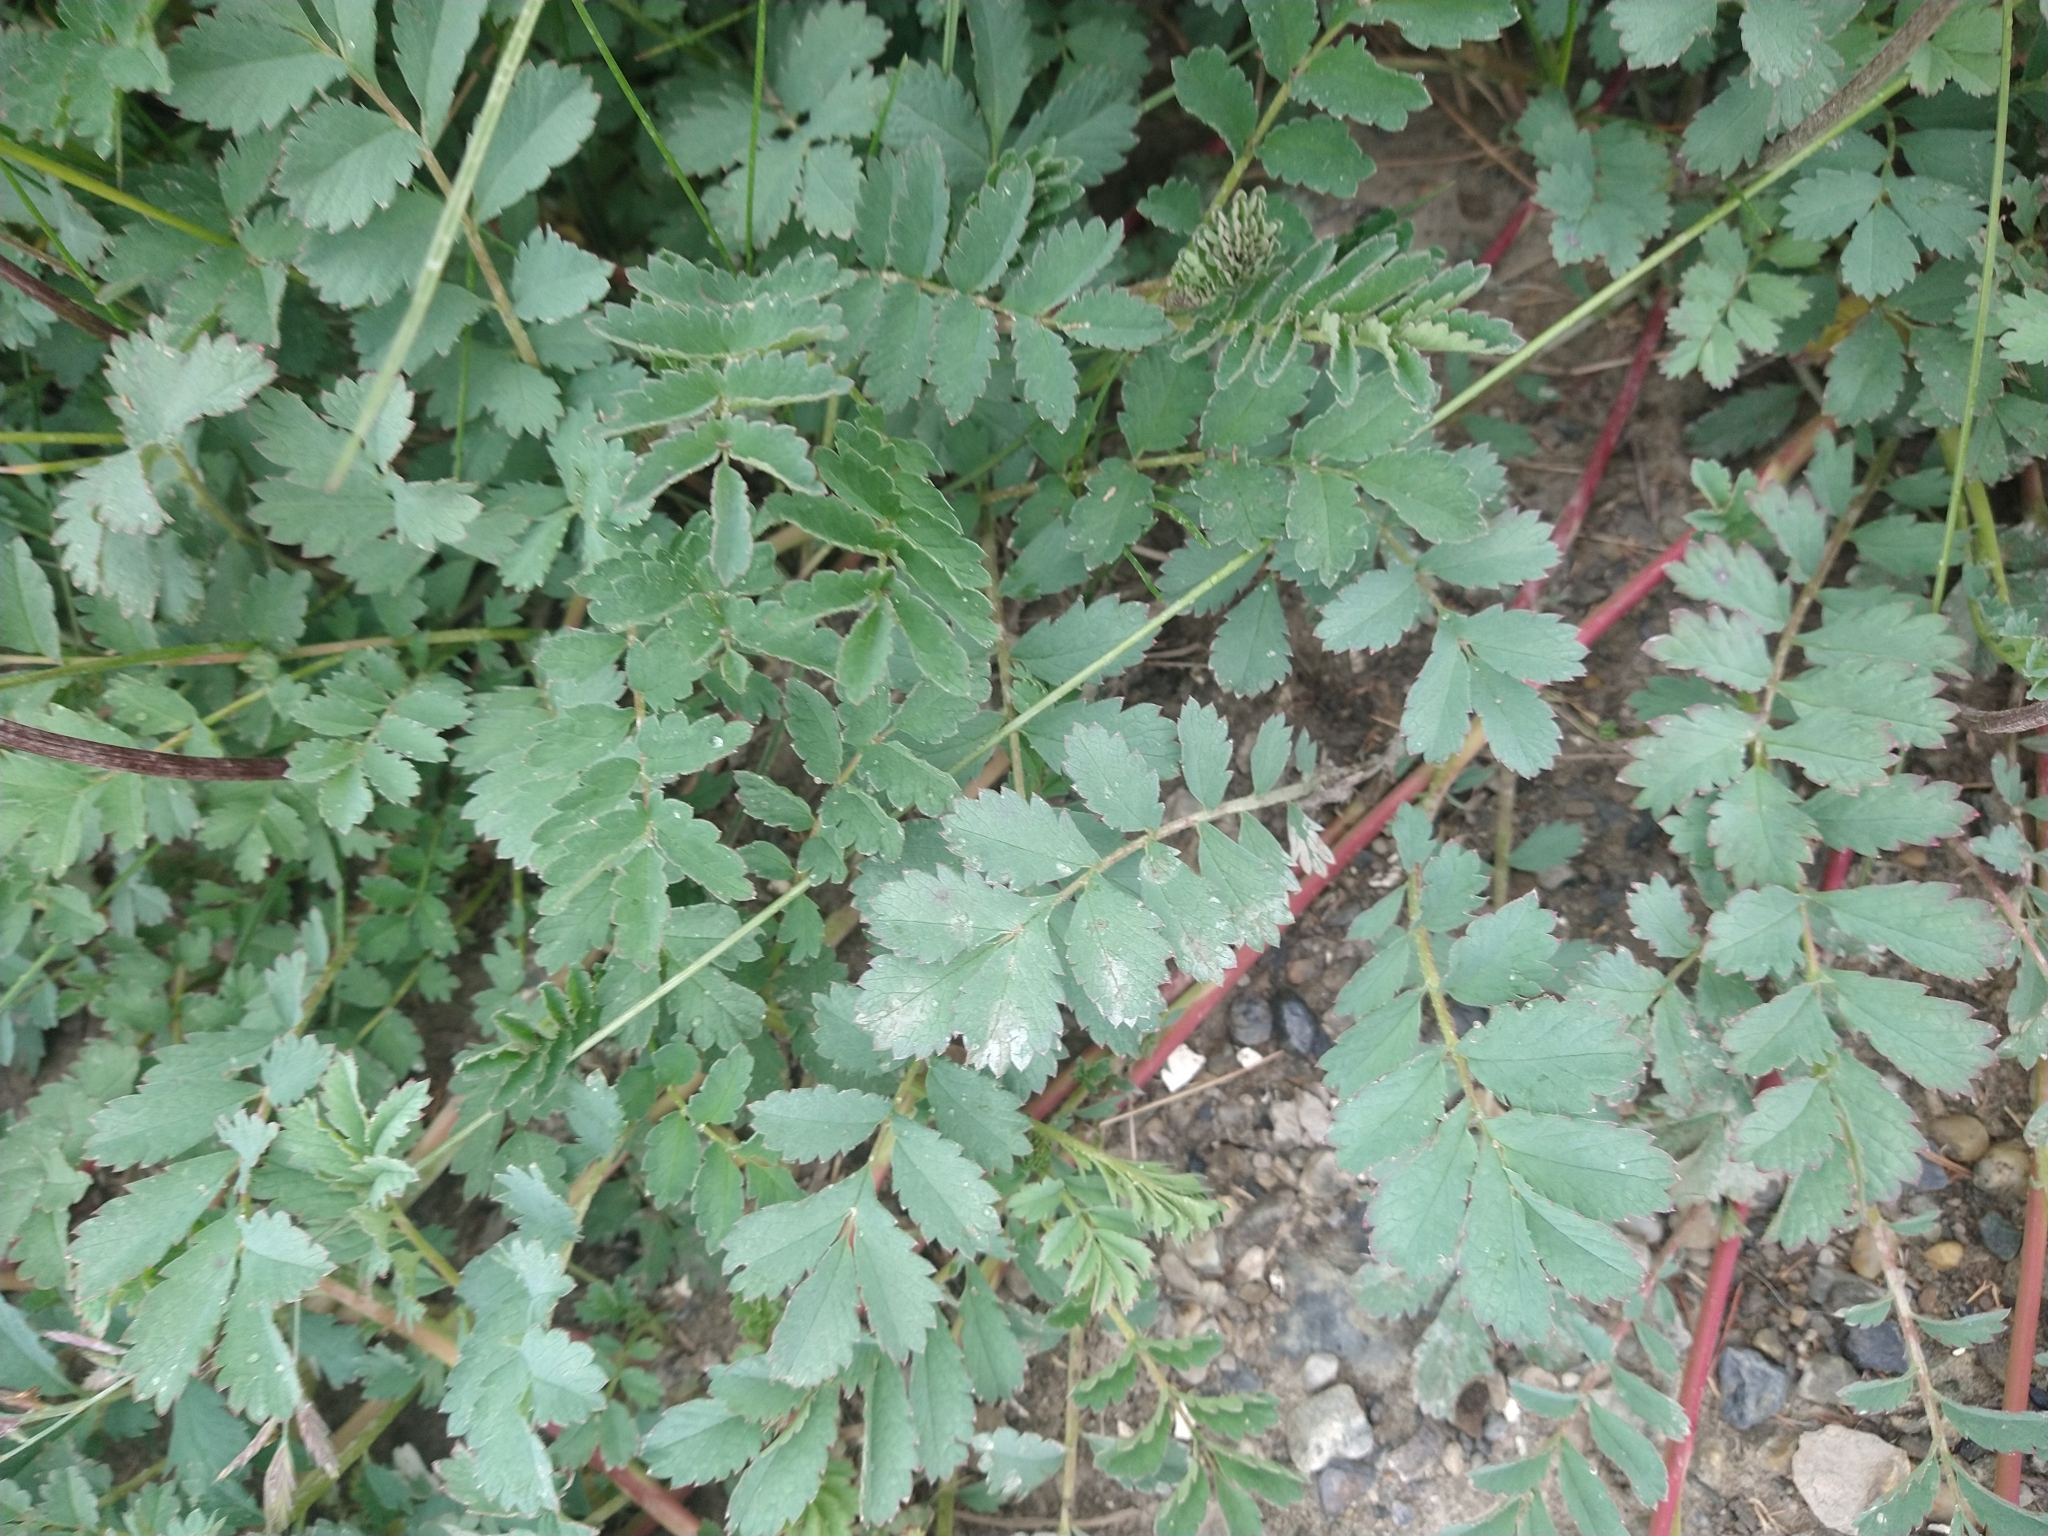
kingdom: Plantae
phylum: Tracheophyta
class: Magnoliopsida
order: Rosales
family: Rosaceae
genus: Acaena
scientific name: Acaena magellanica
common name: New zealand burr
